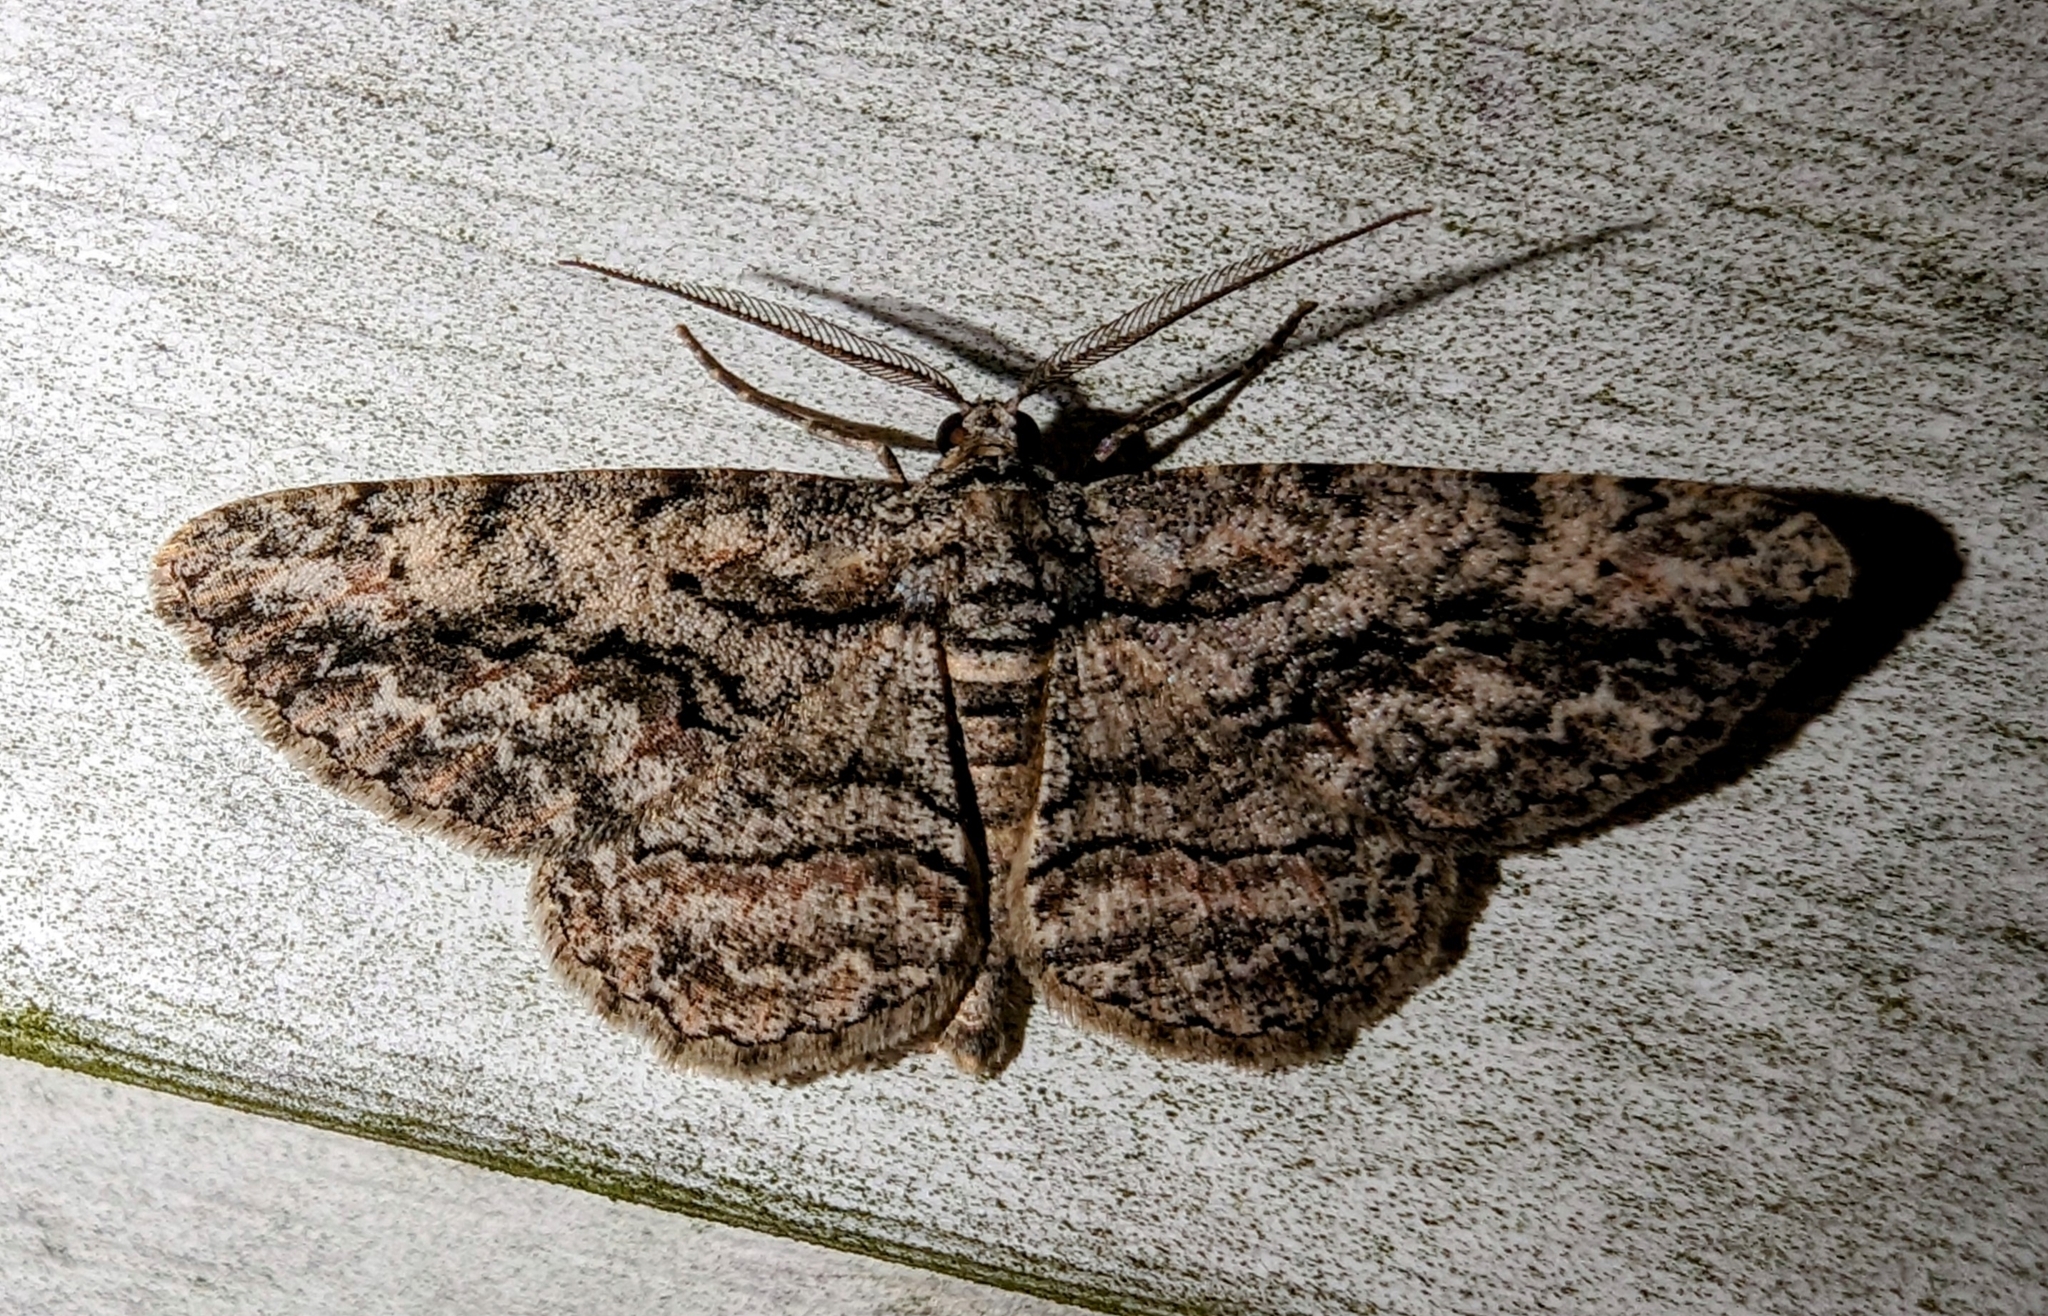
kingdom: Animalia
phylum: Arthropoda
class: Insecta
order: Lepidoptera
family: Geometridae
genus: Anavitrinella
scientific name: Anavitrinella pampinaria
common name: Common gray
